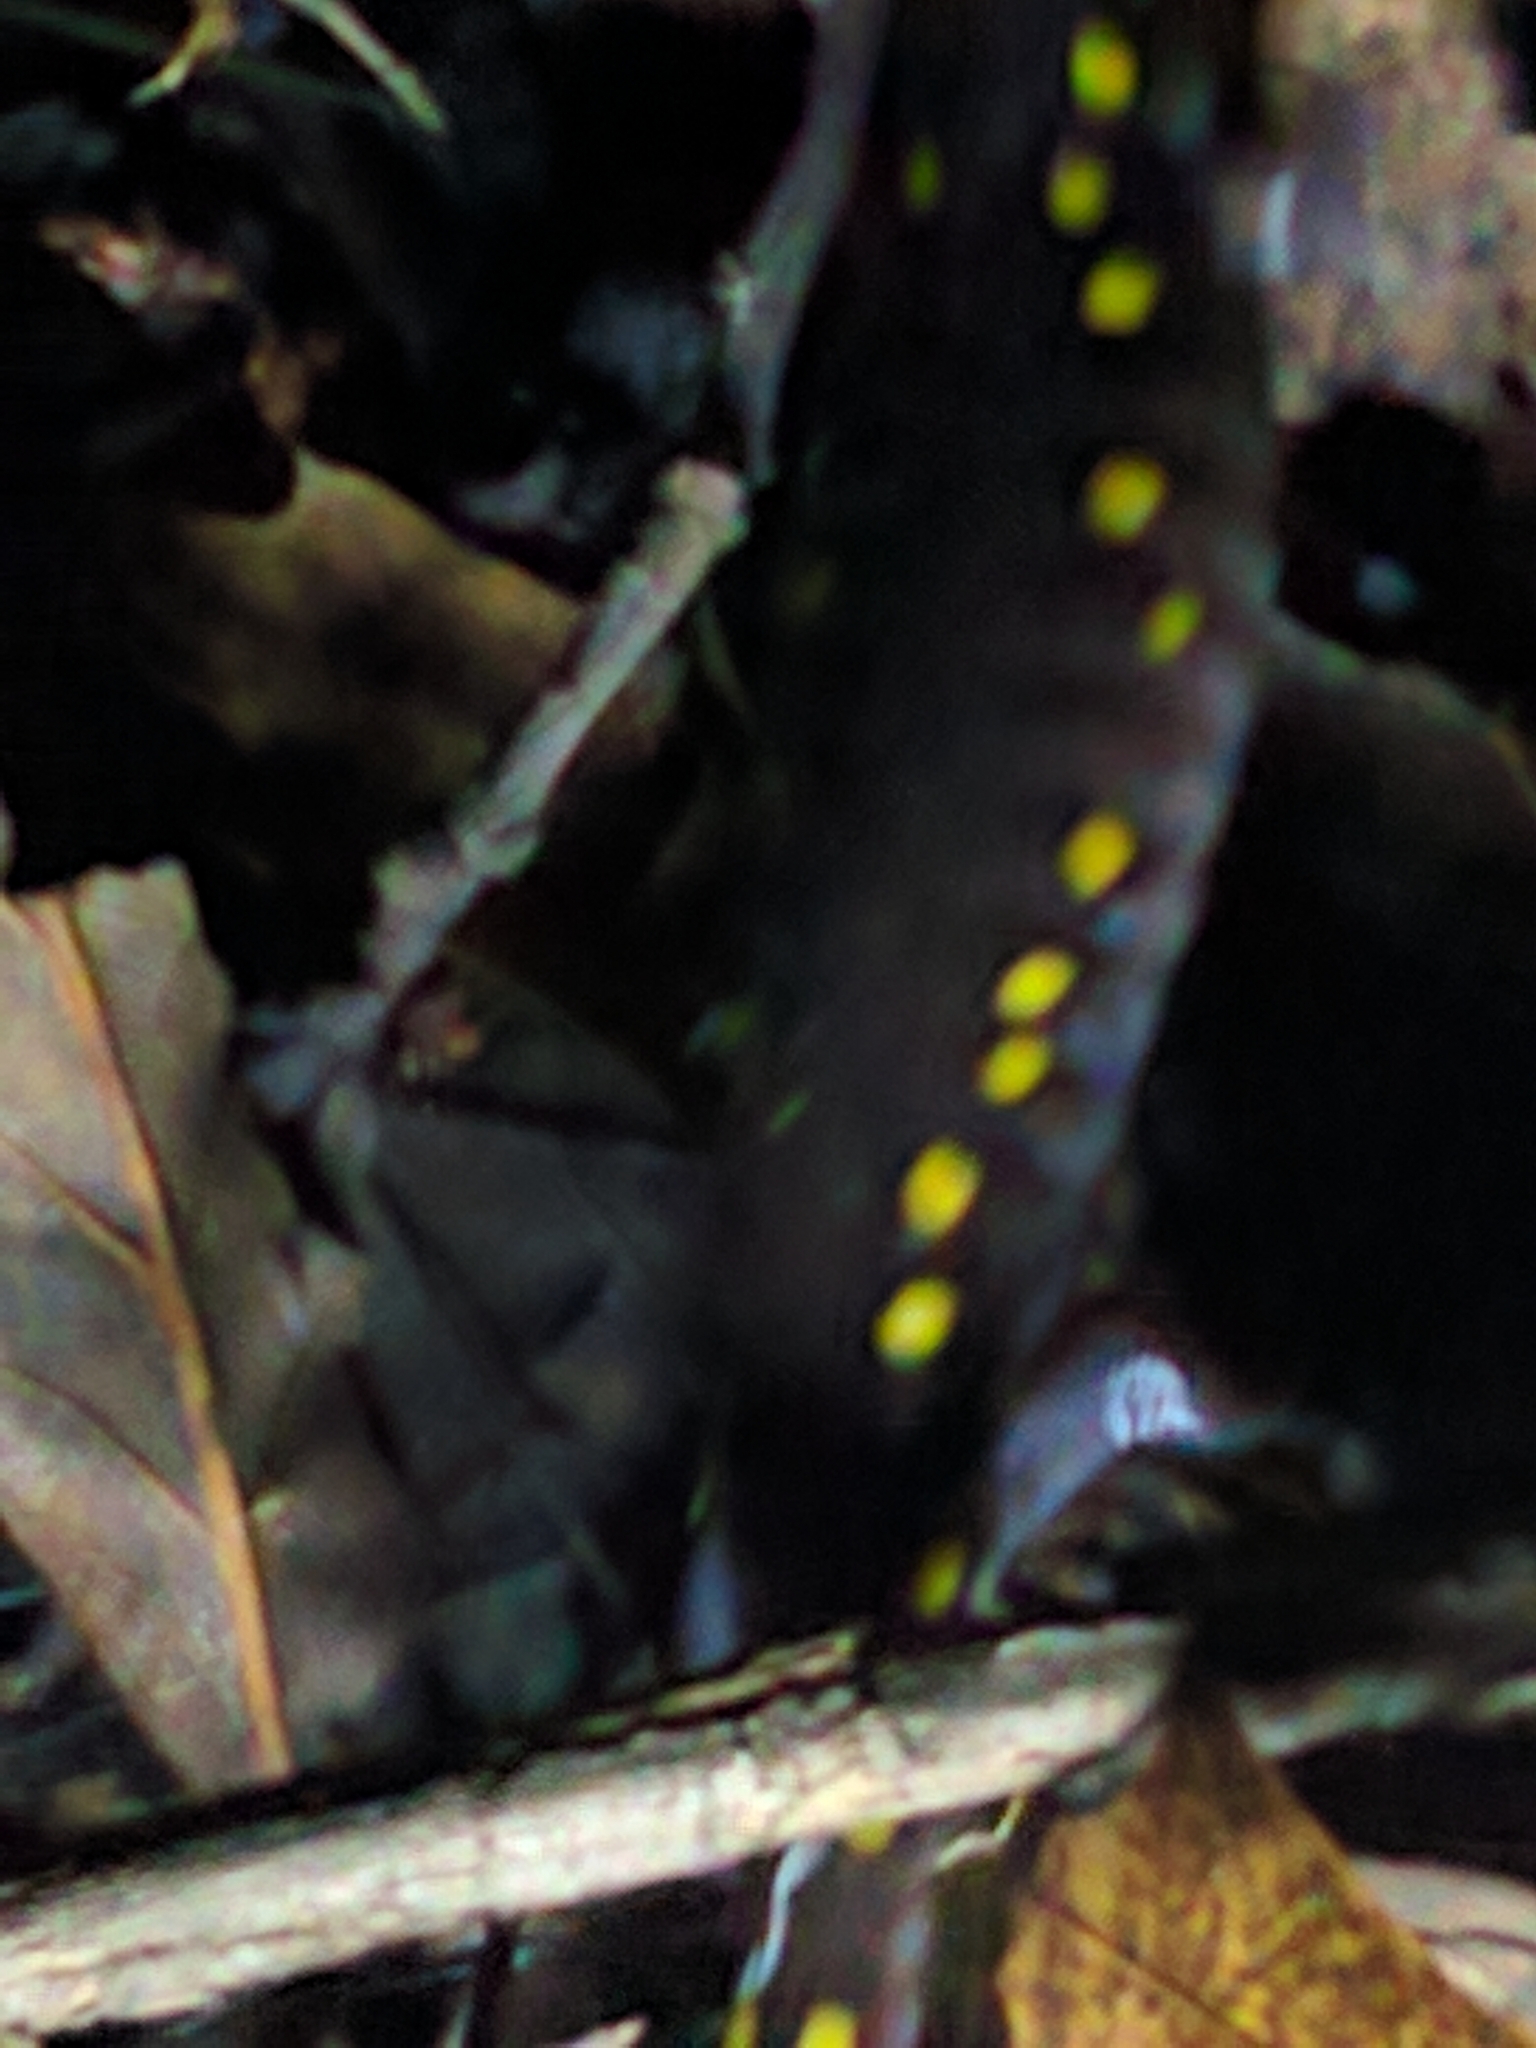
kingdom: Animalia
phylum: Chordata
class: Amphibia
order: Caudata
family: Ambystomatidae
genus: Ambystoma
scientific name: Ambystoma maculatum
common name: Spotted salamander
